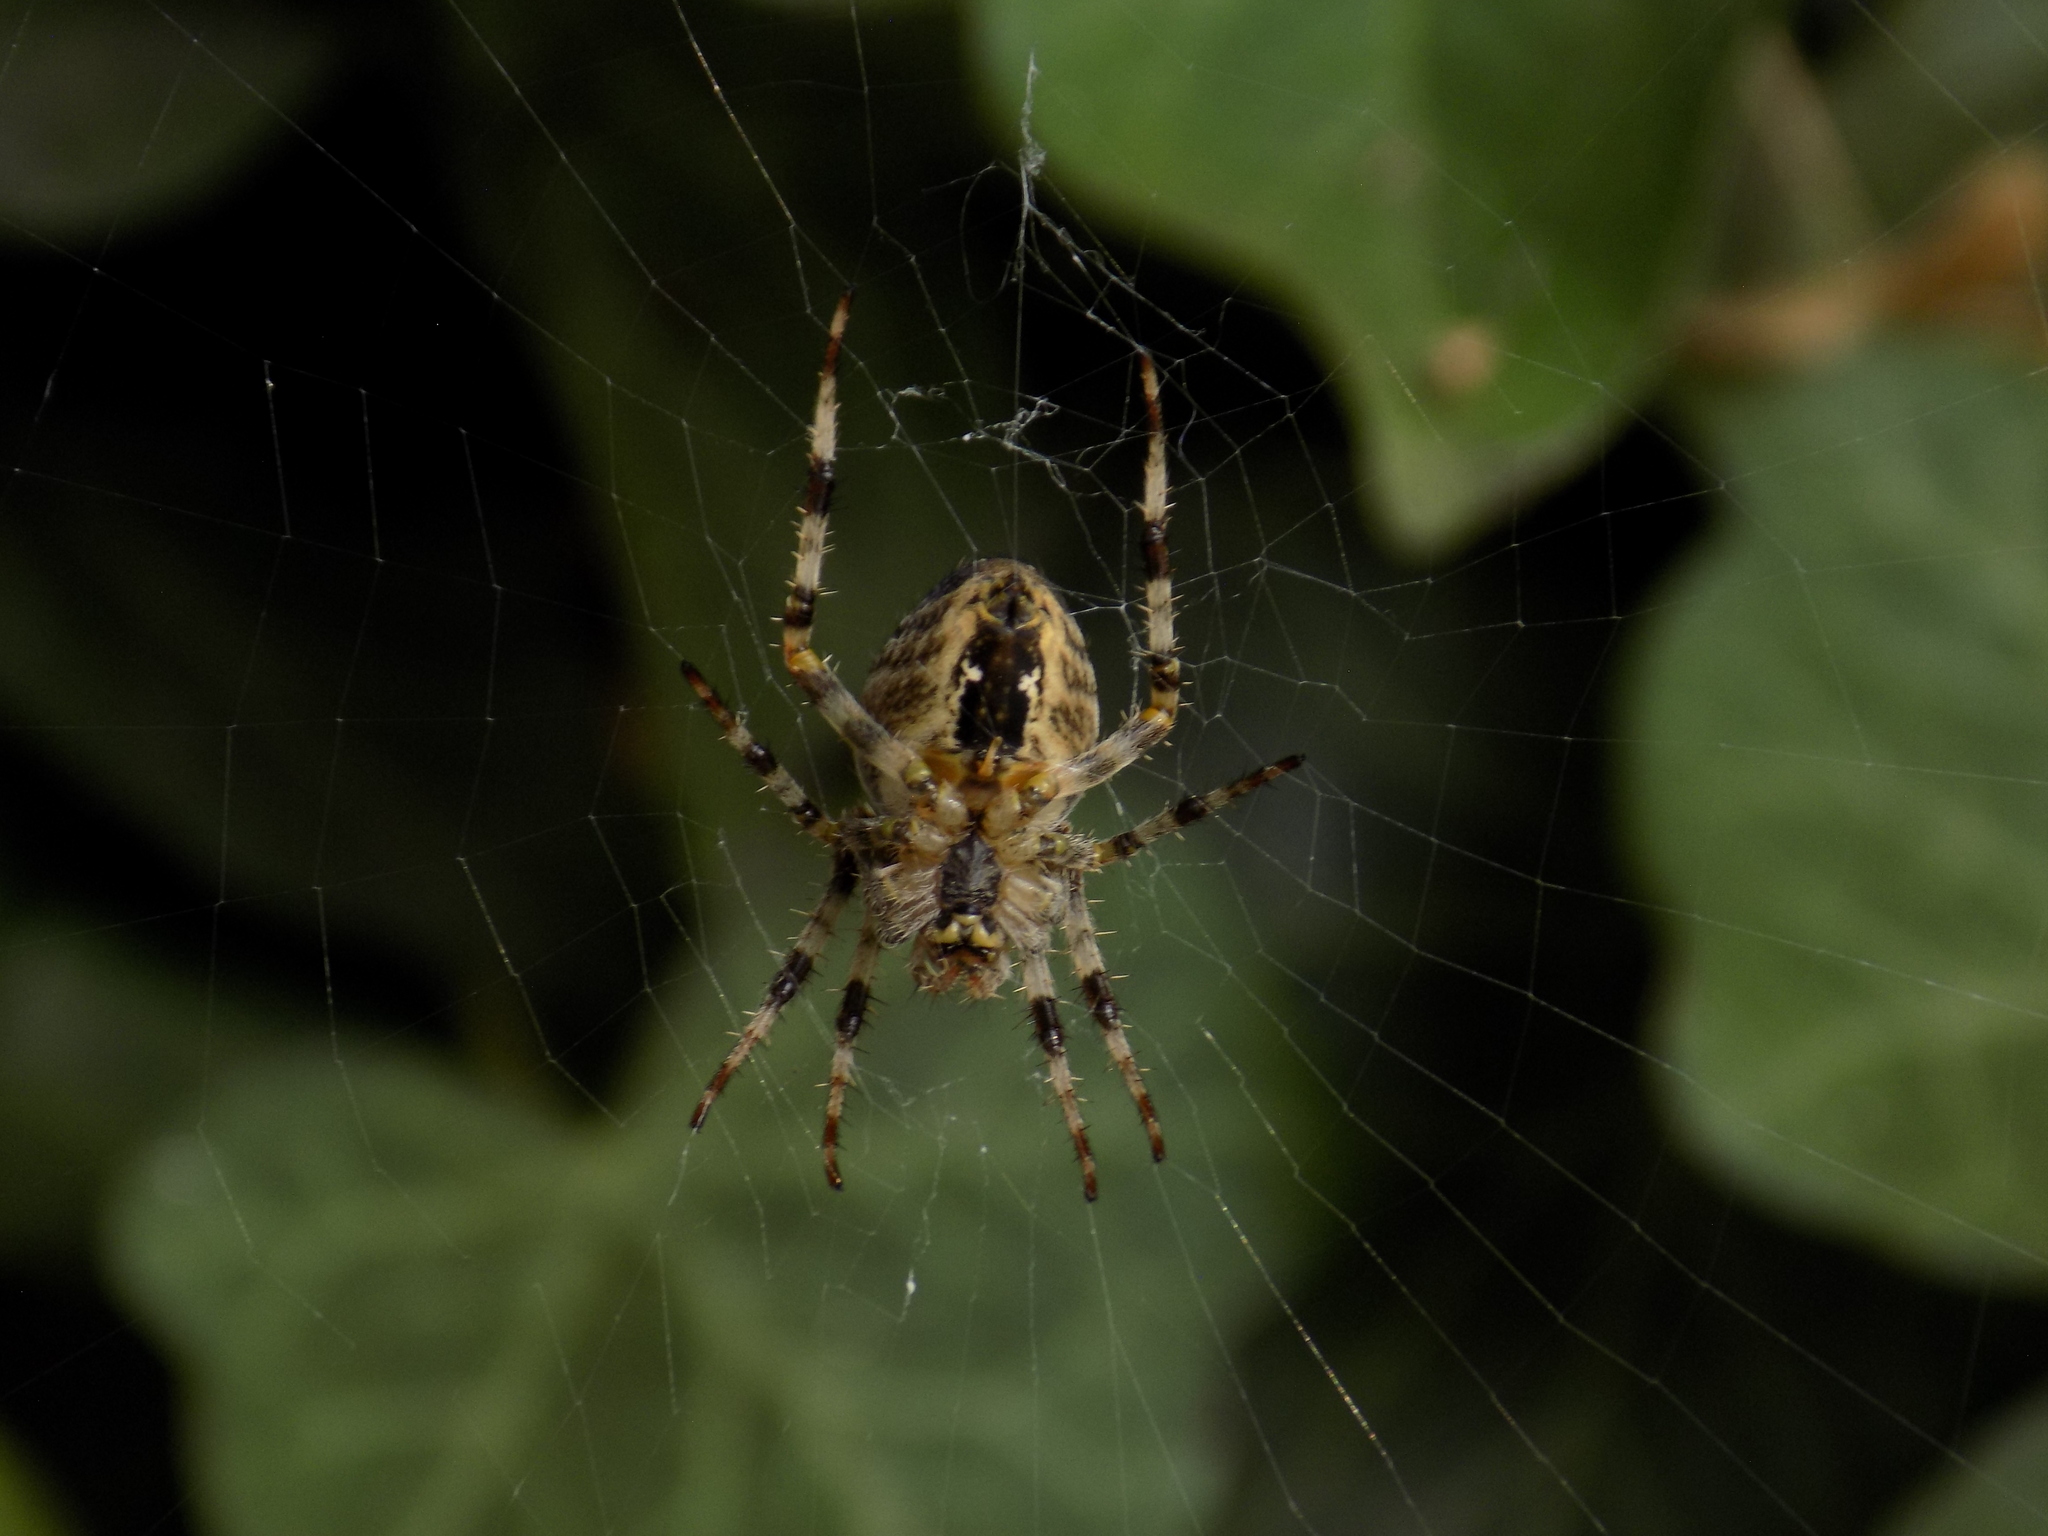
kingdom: Animalia
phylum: Arthropoda
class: Arachnida
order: Araneae
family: Araneidae
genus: Araneus
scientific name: Araneus diadematus
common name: Cross orbweaver
